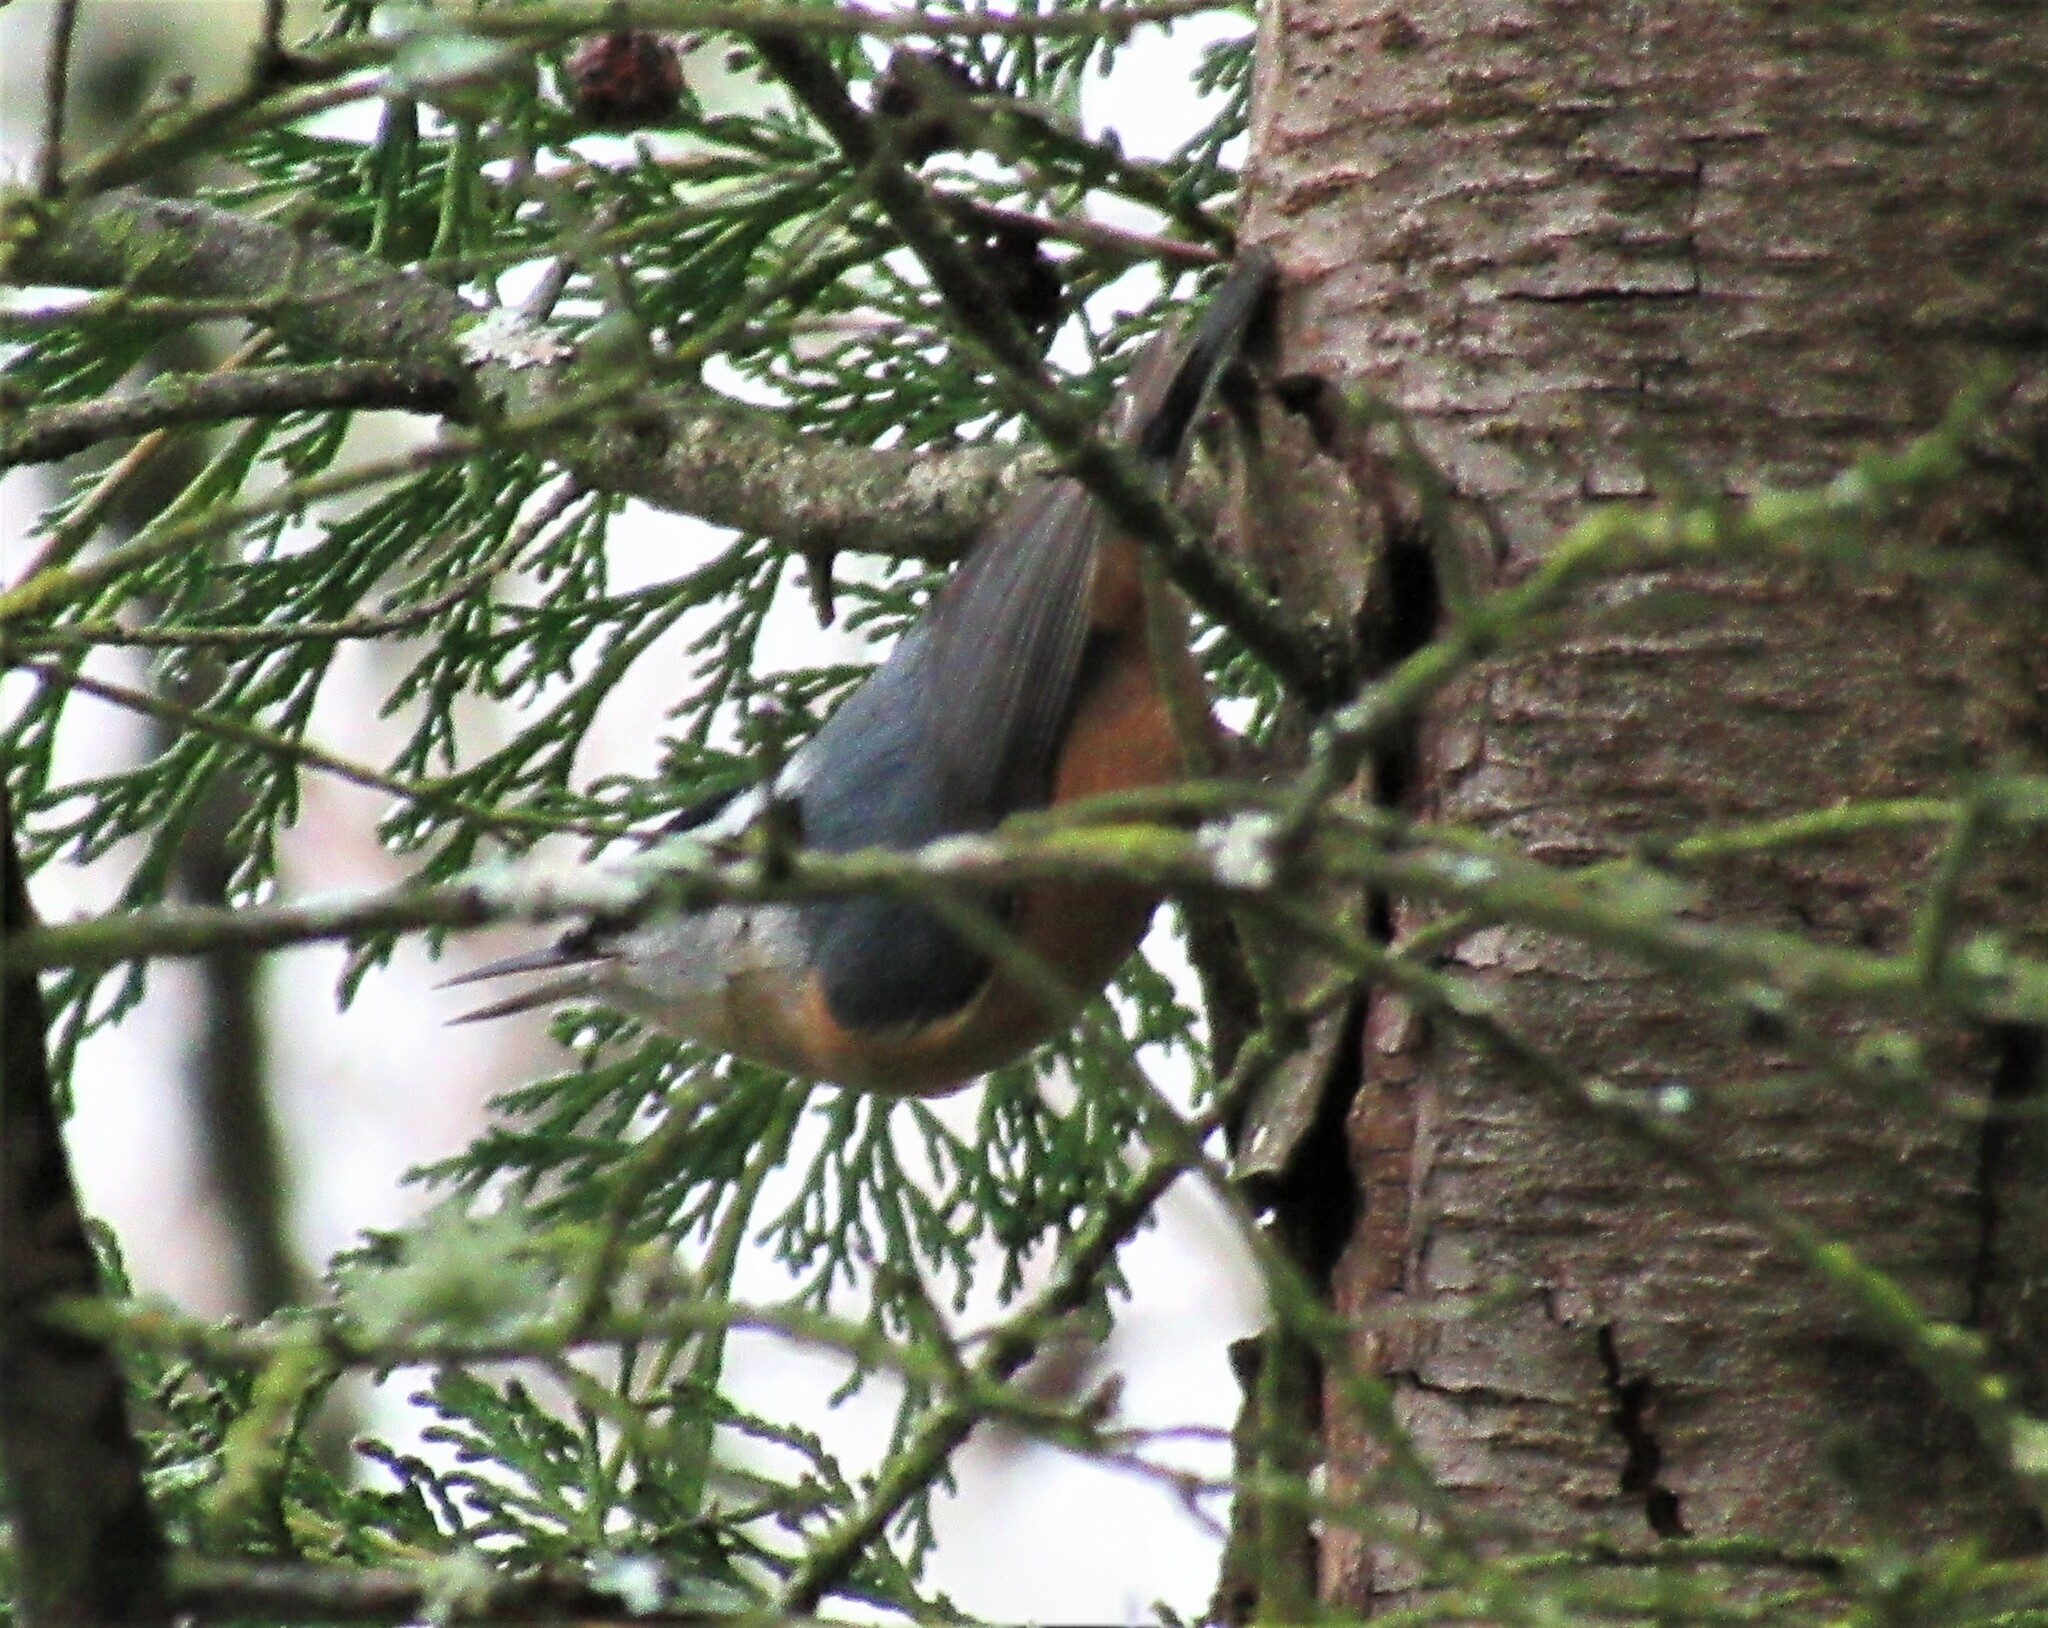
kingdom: Animalia
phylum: Chordata
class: Aves
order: Passeriformes
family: Sittidae
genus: Sitta
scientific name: Sitta canadensis
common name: Red-breasted nuthatch
